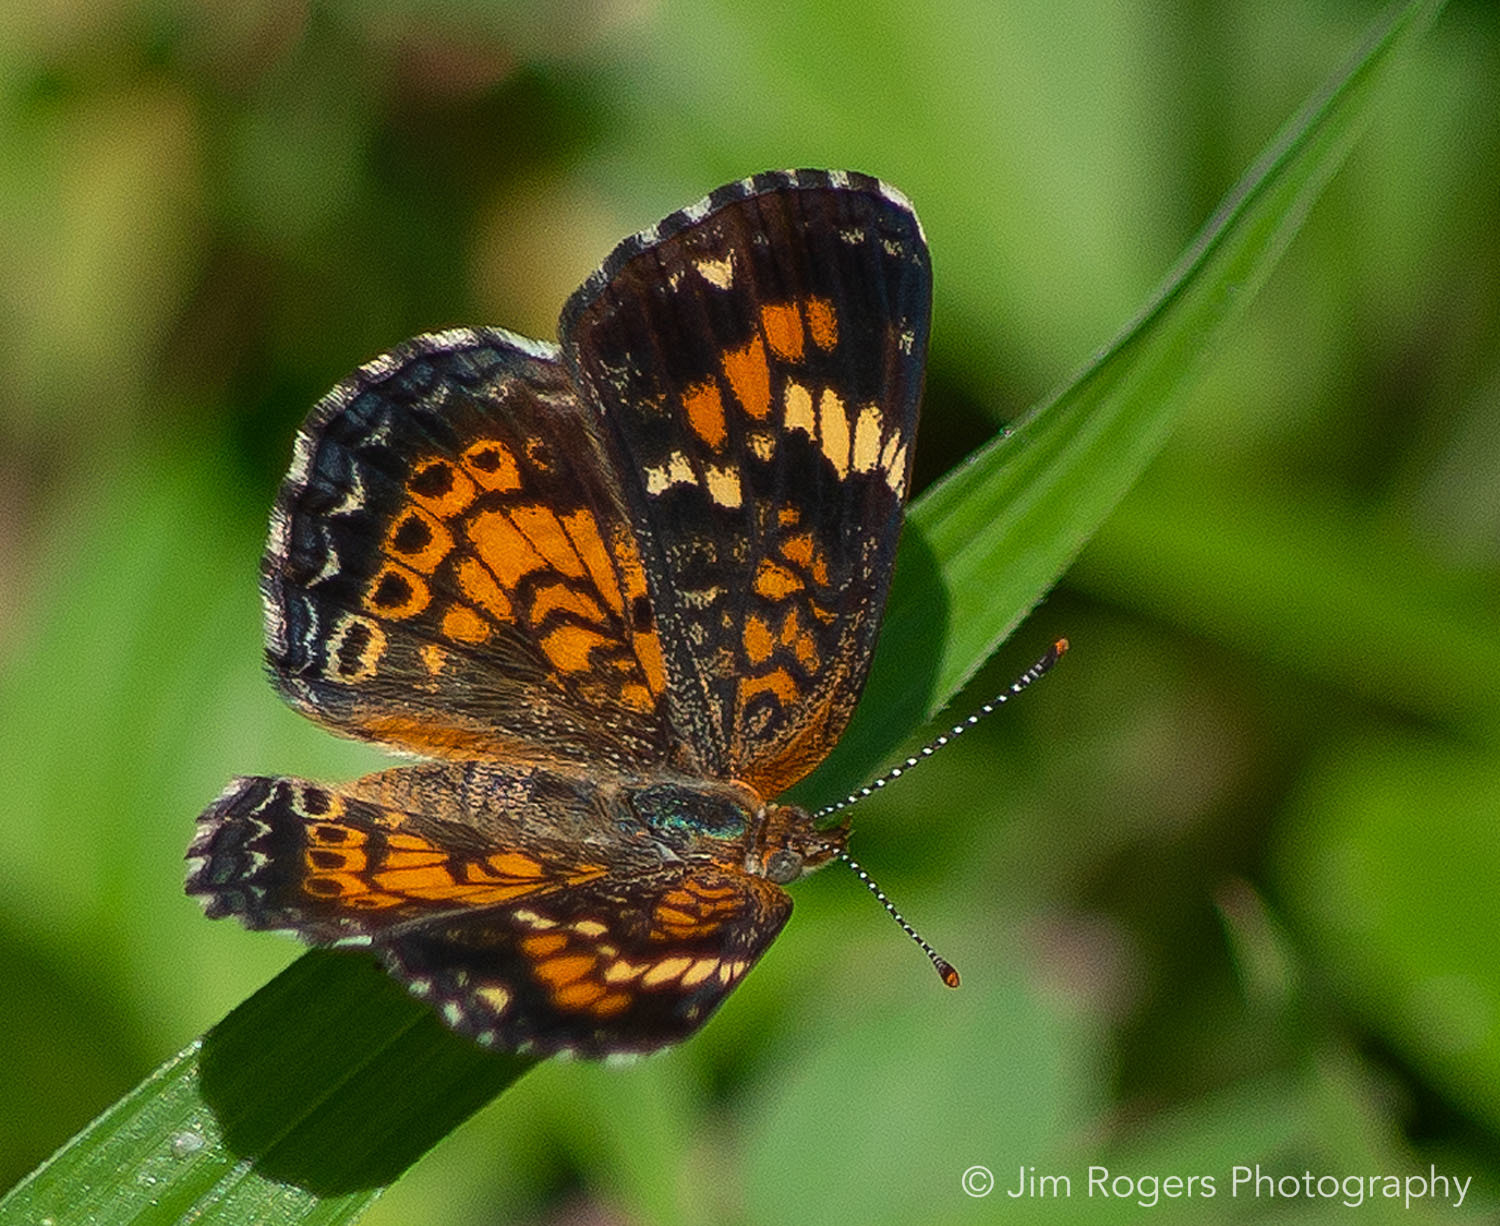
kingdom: Animalia
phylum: Arthropoda
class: Insecta
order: Lepidoptera
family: Nymphalidae
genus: Phyciodes
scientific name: Phyciodes phaon
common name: Phaon crescent
